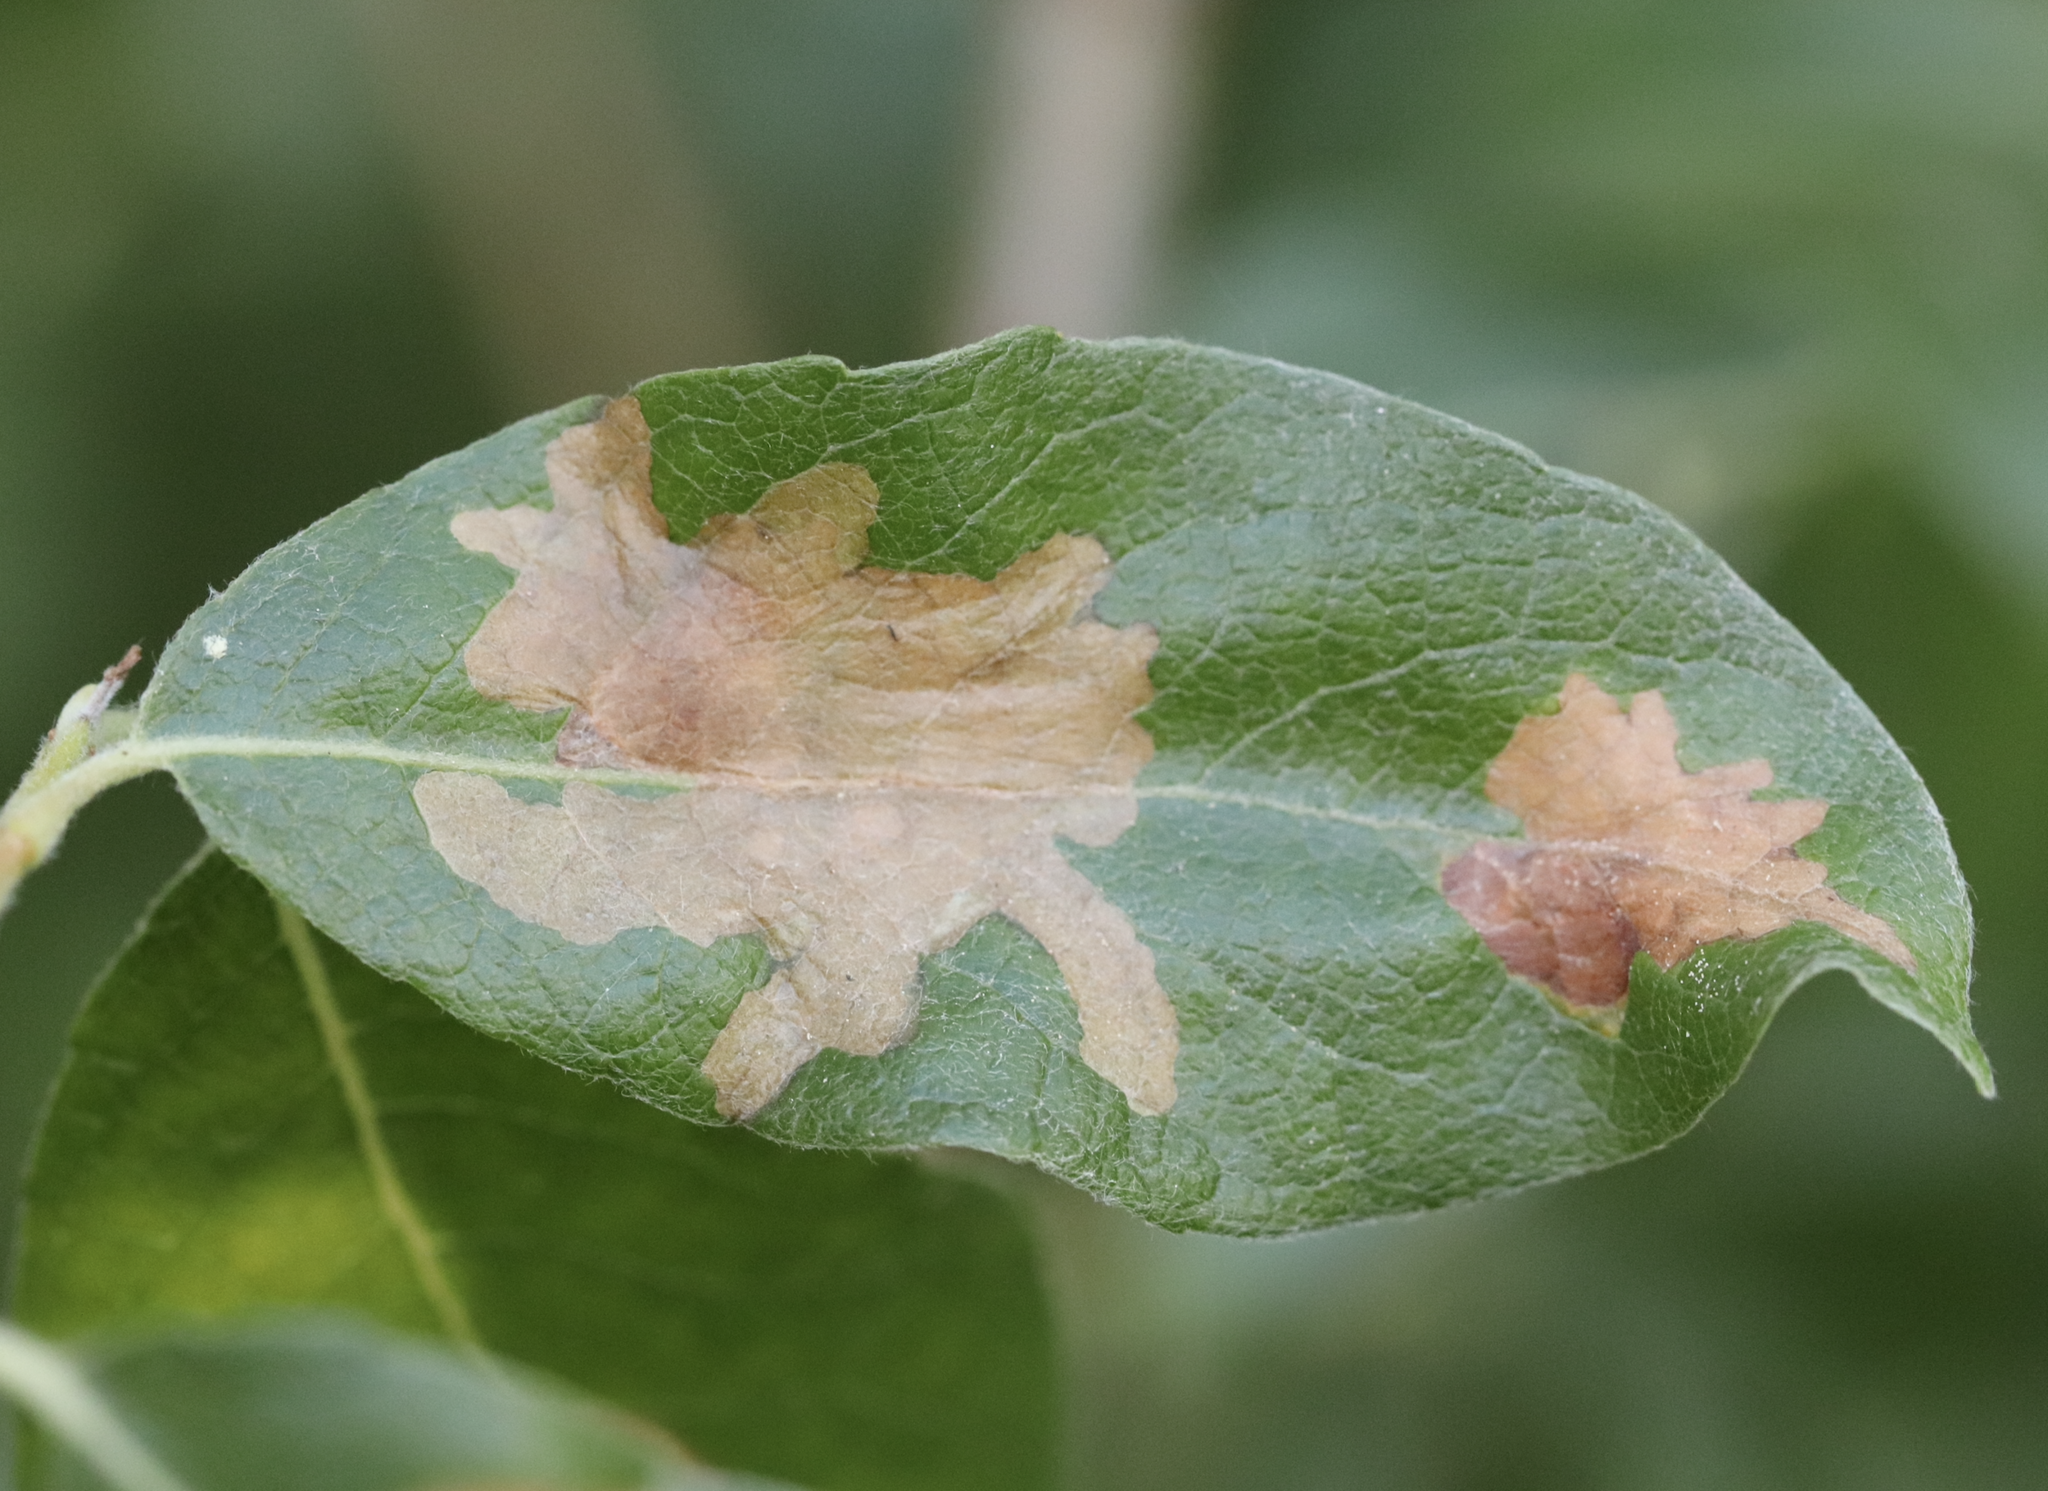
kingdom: Animalia
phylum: Arthropoda
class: Insecta
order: Lepidoptera
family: Gracillariidae
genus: Micrurapteryx
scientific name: Micrurapteryx salicifoliella
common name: Willow leaf blotch miner moth
